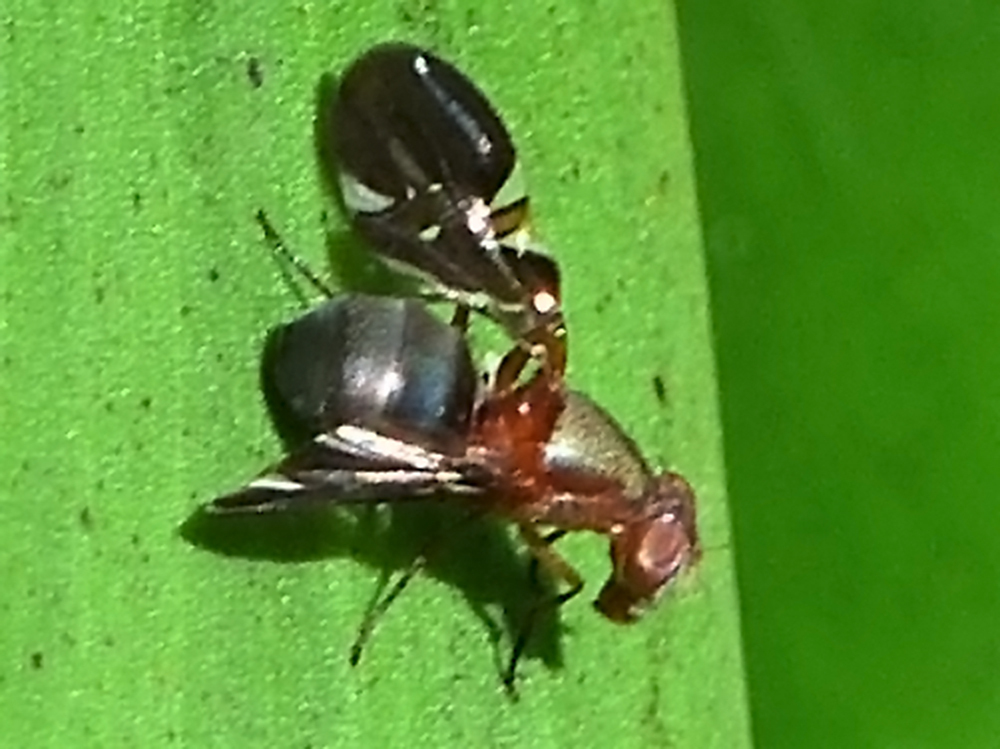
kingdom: Animalia
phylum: Arthropoda
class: Insecta
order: Diptera
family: Ulidiidae
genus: Delphinia
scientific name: Delphinia picta
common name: Common picture-winged fly
